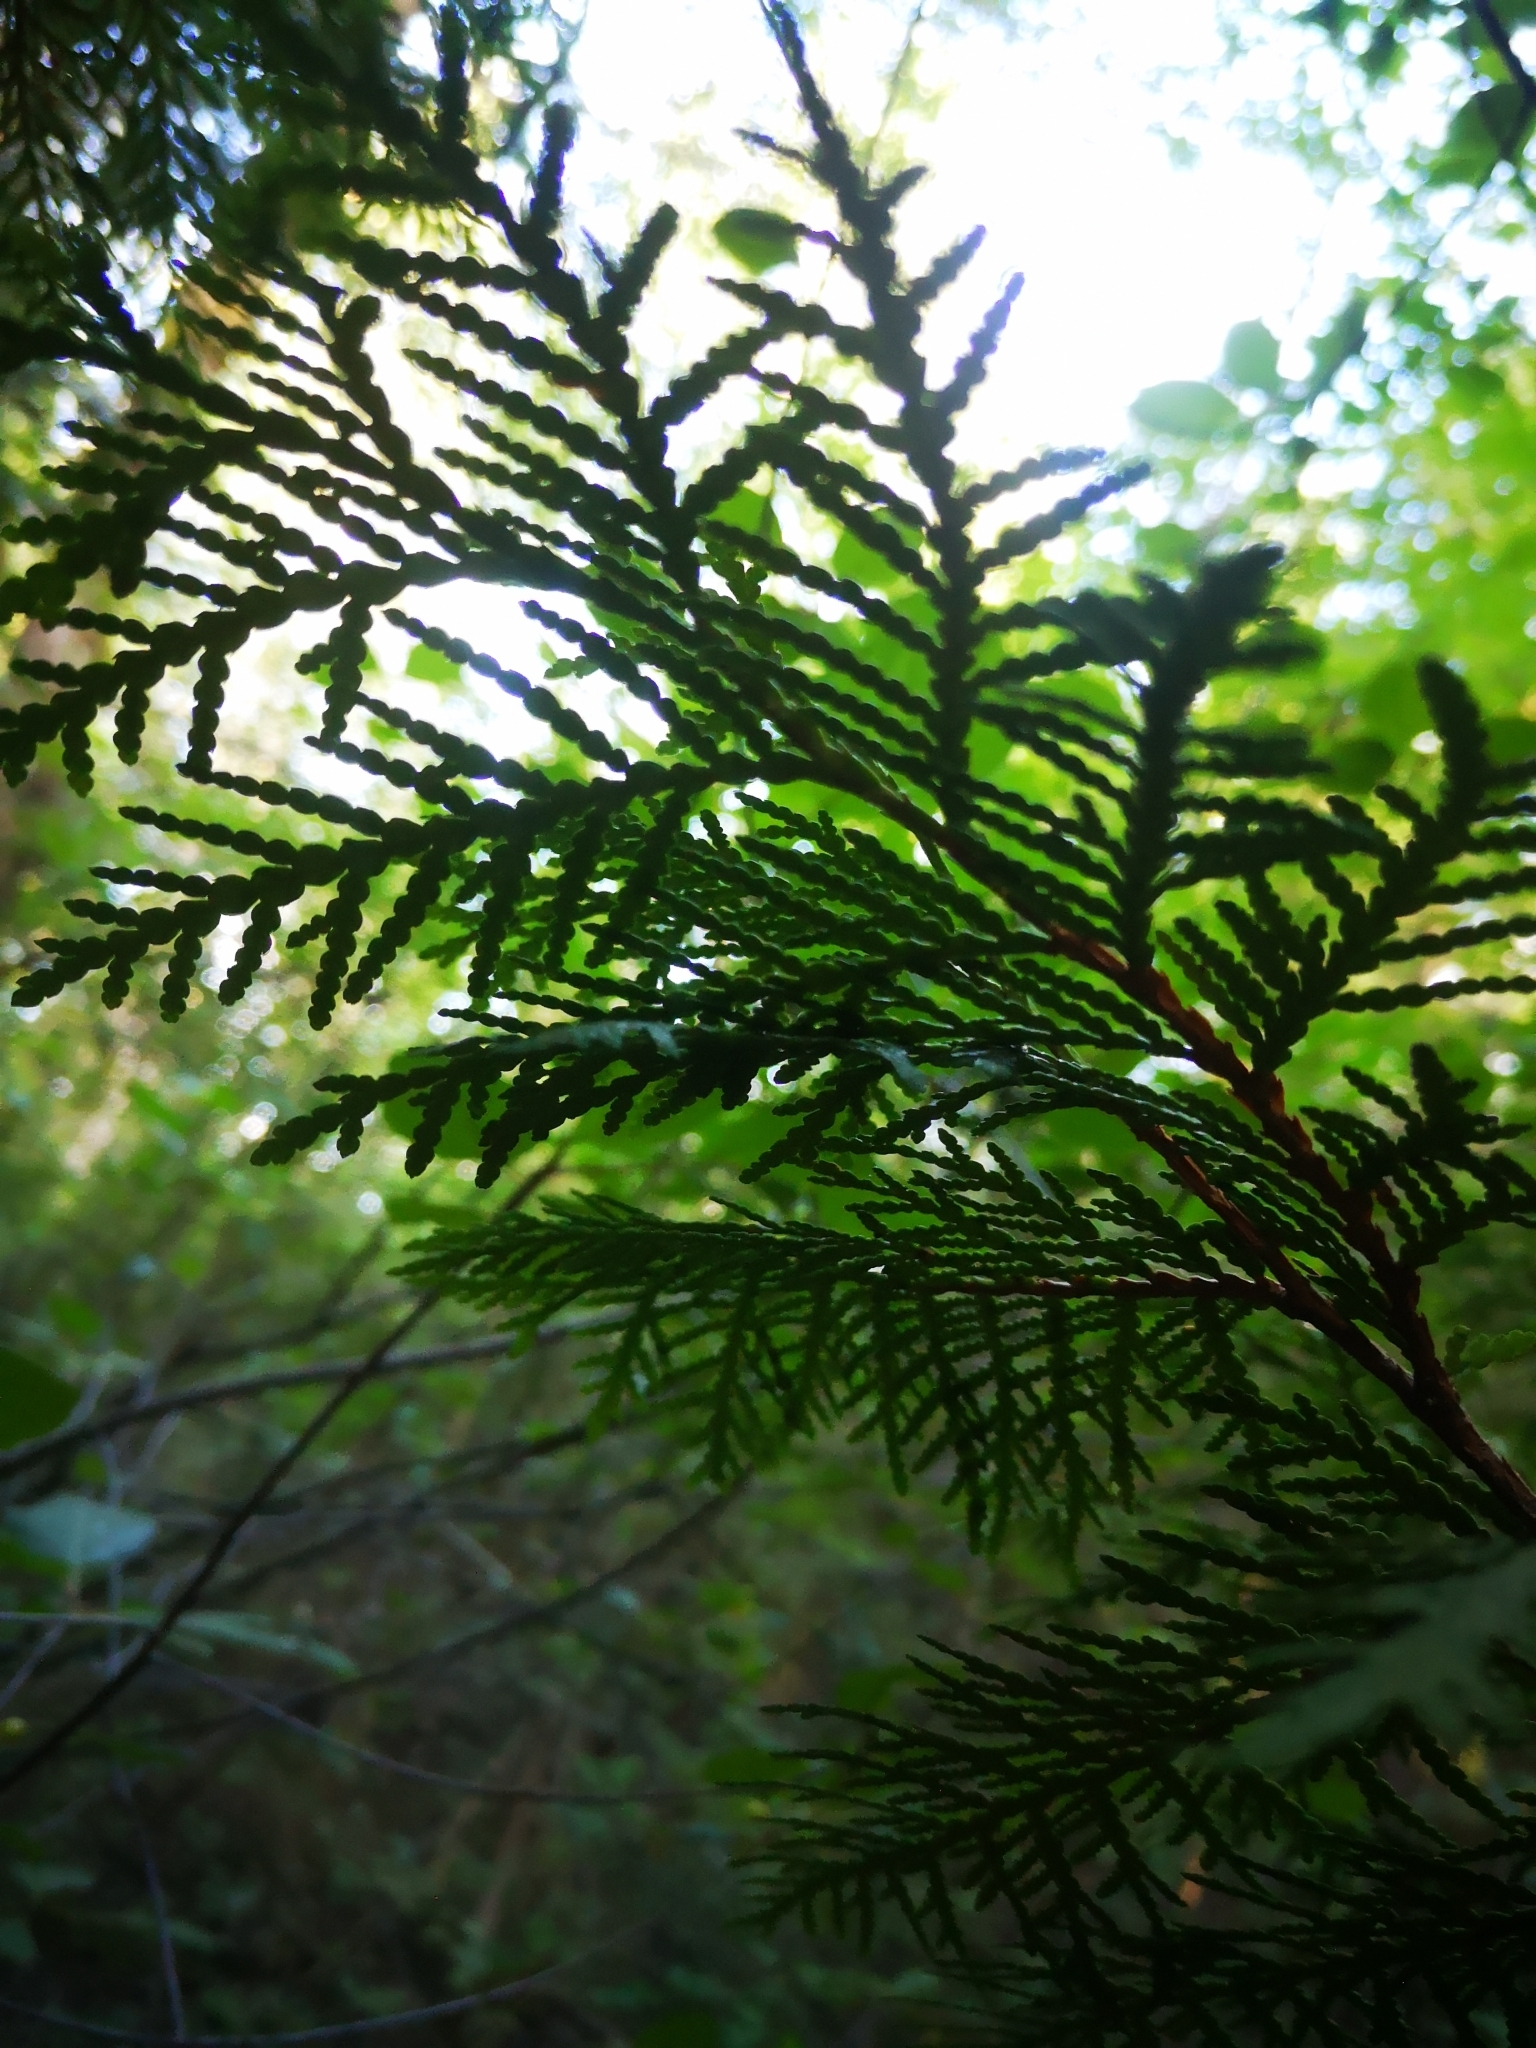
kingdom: Plantae
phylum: Tracheophyta
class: Pinopsida
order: Pinales
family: Cupressaceae
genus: Thuja
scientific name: Thuja occidentalis
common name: Northern white-cedar
